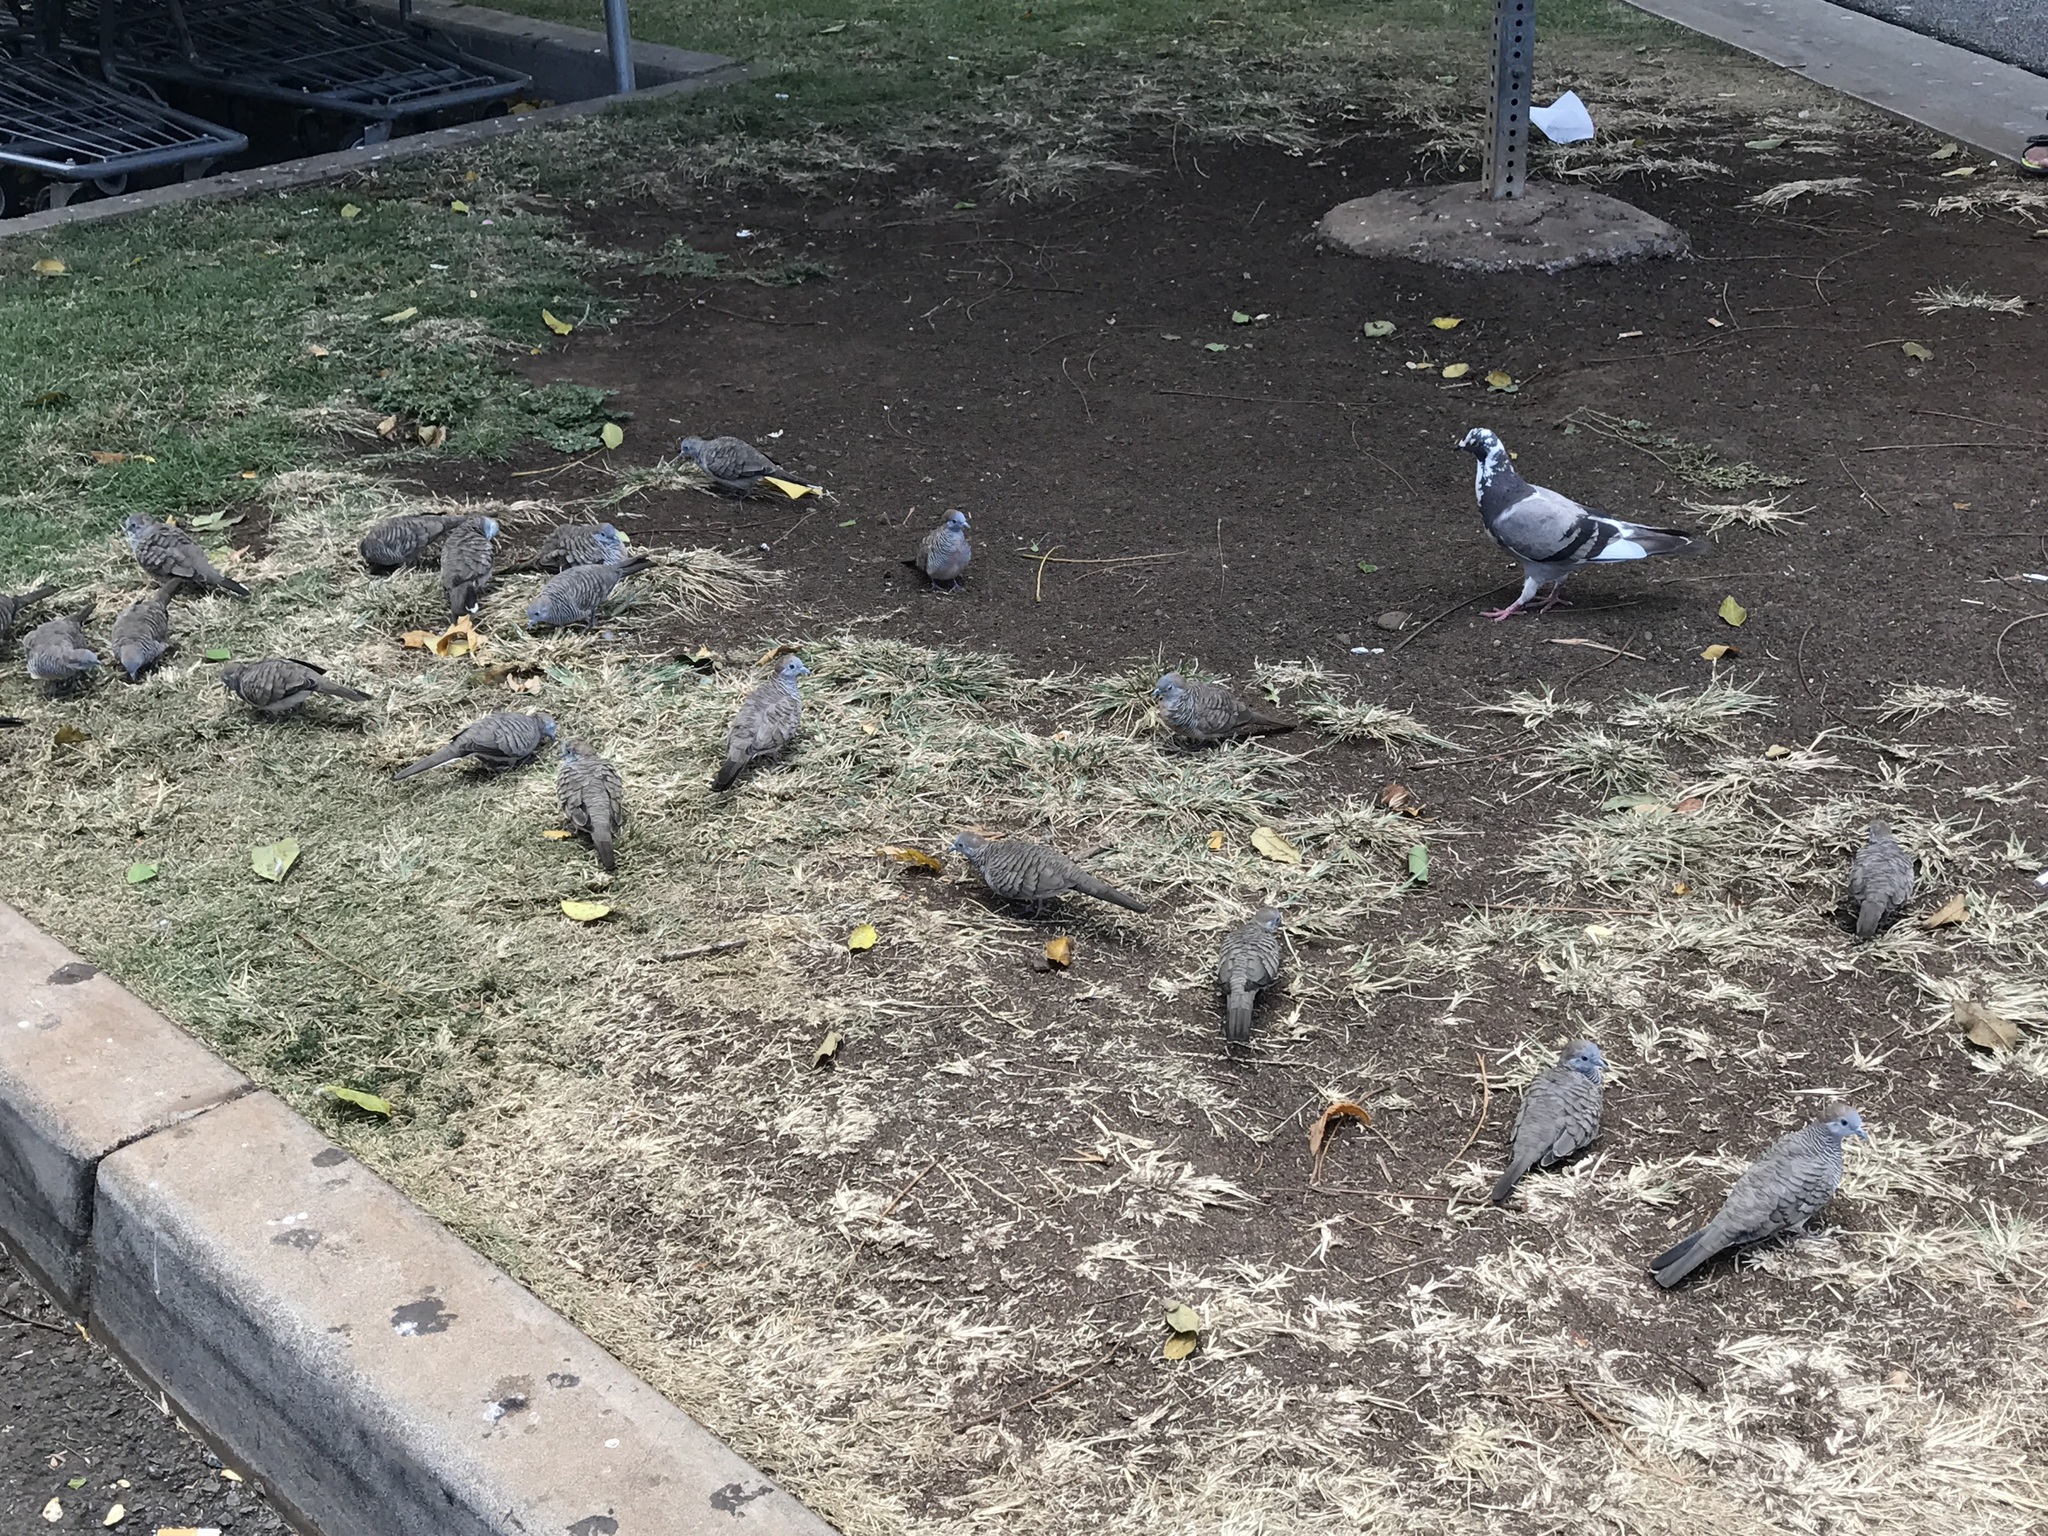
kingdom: Animalia
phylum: Chordata
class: Aves
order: Columbiformes
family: Columbidae
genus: Geopelia
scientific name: Geopelia striata
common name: Zebra dove
